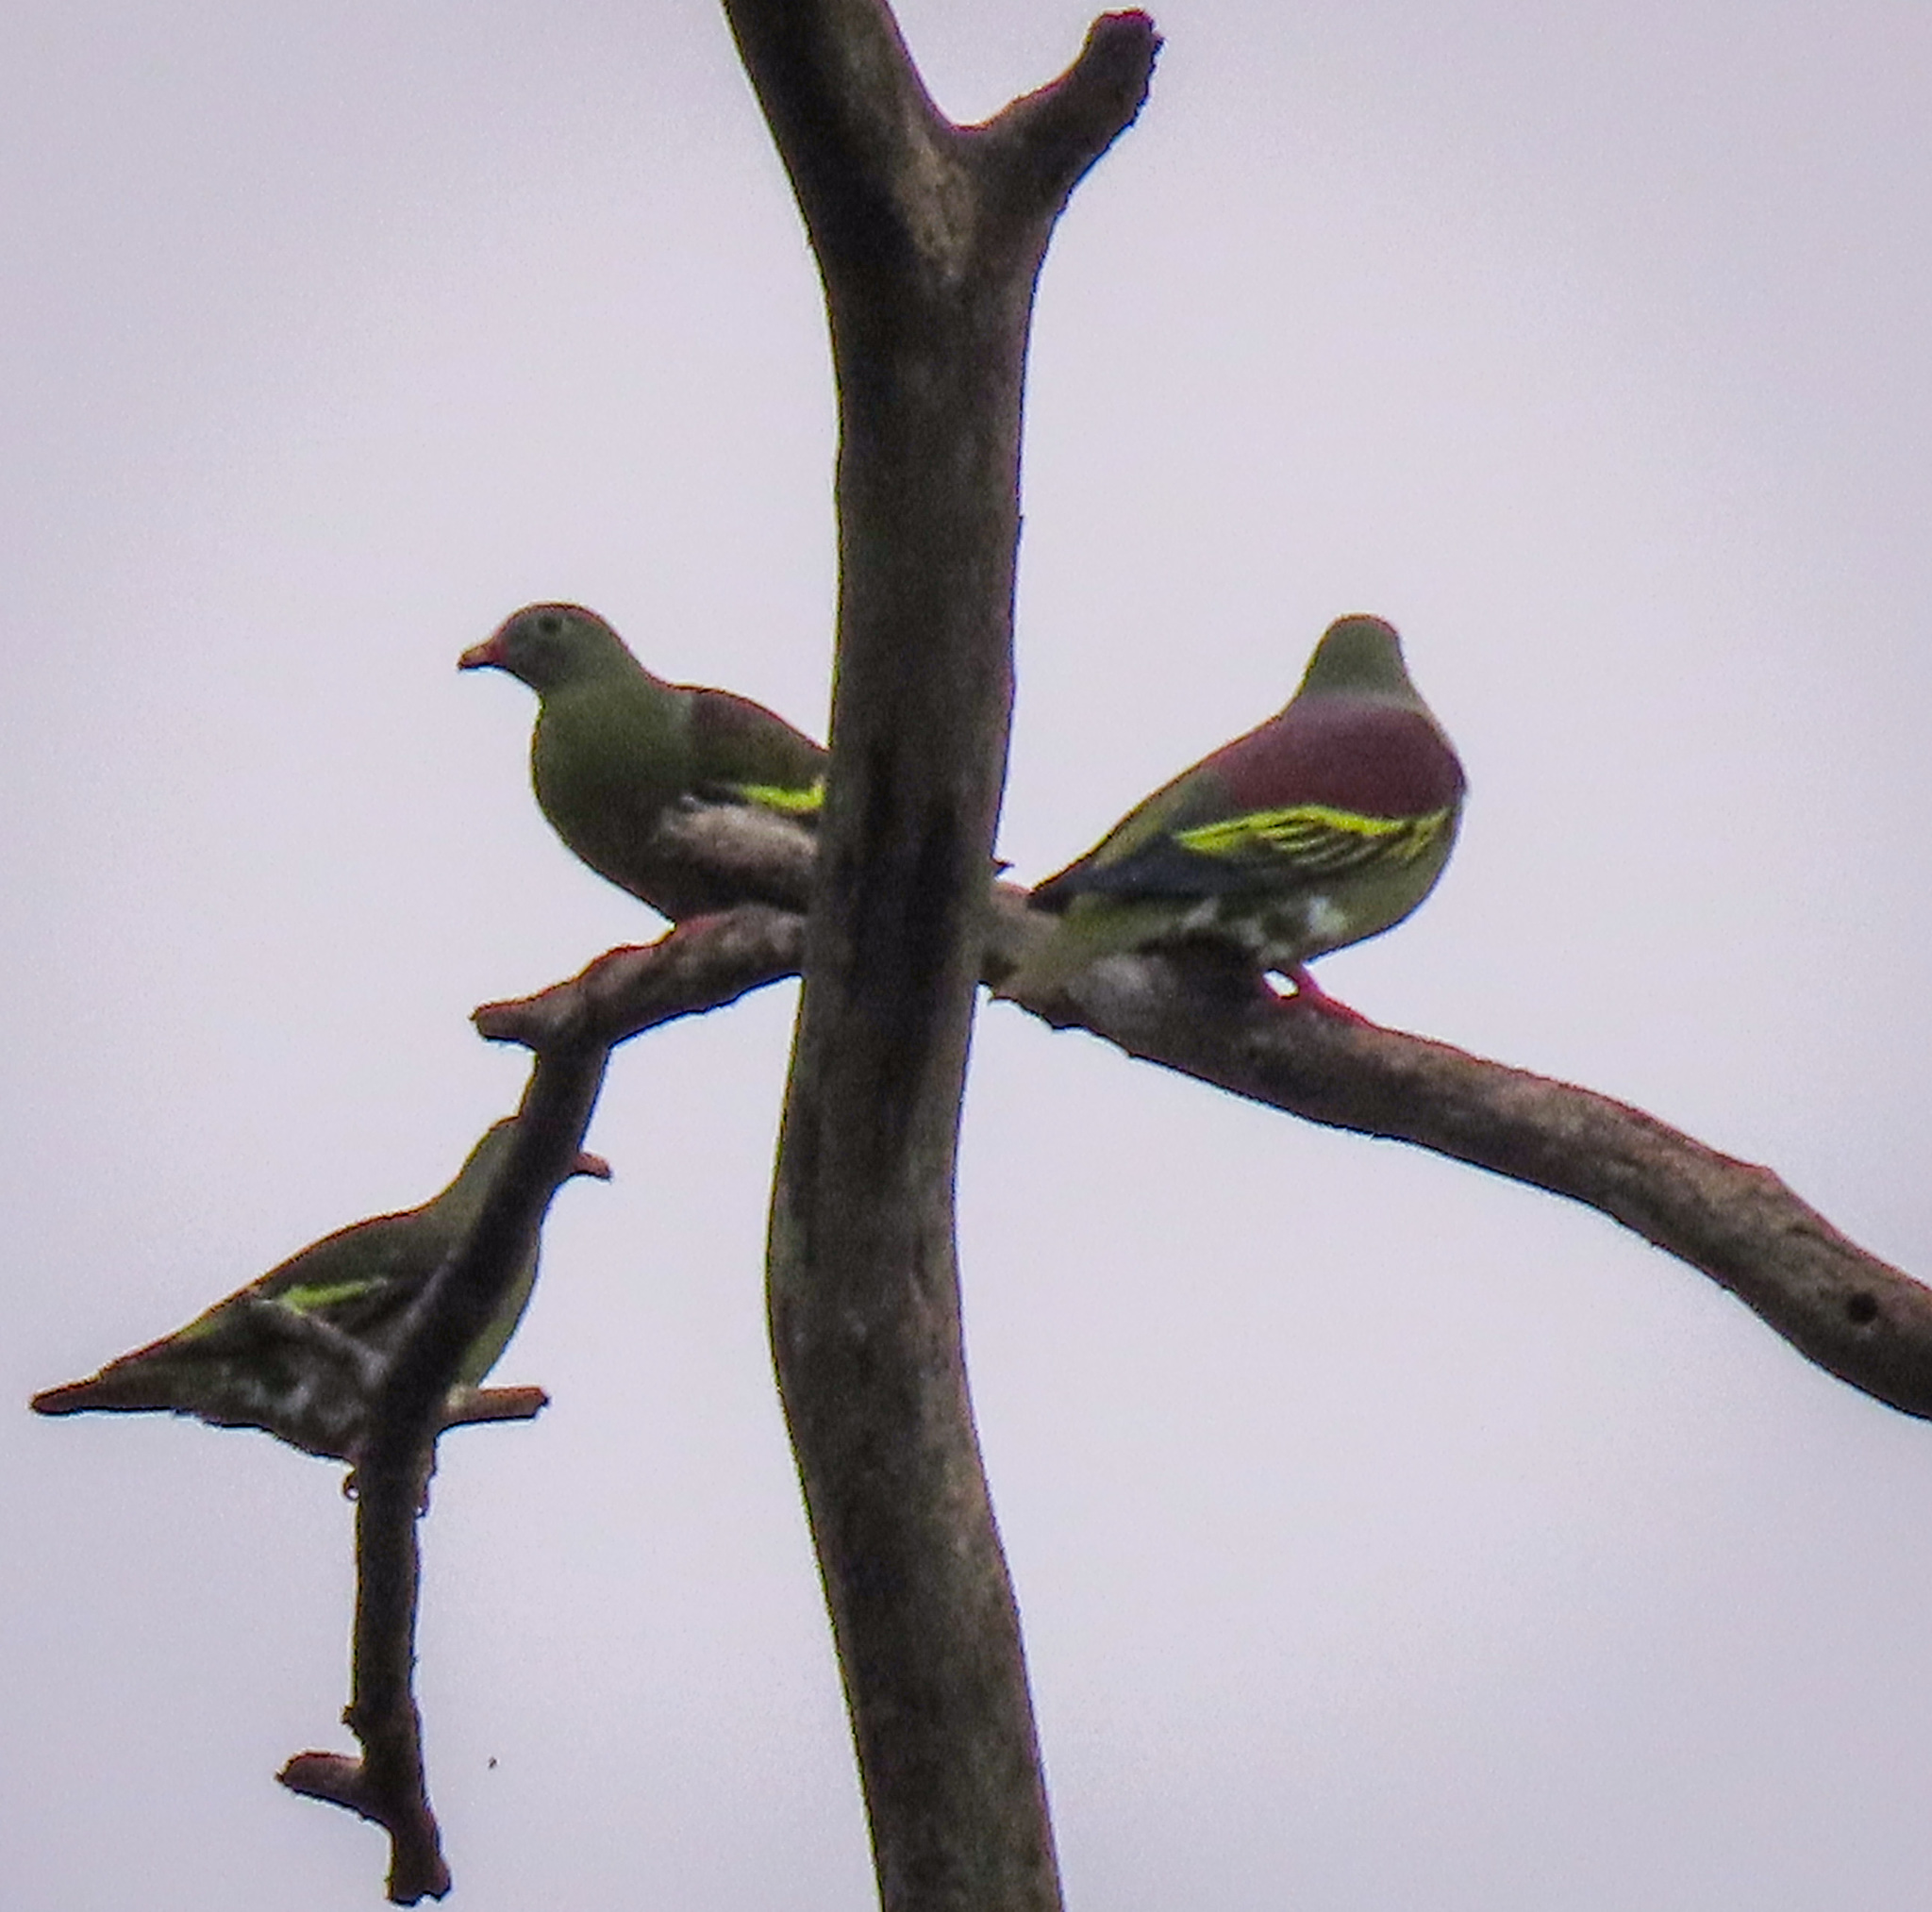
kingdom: Animalia
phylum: Chordata
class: Aves
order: Columbiformes
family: Columbidae
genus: Treron
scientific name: Treron curvirostra
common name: Thick-billed green pigeon
